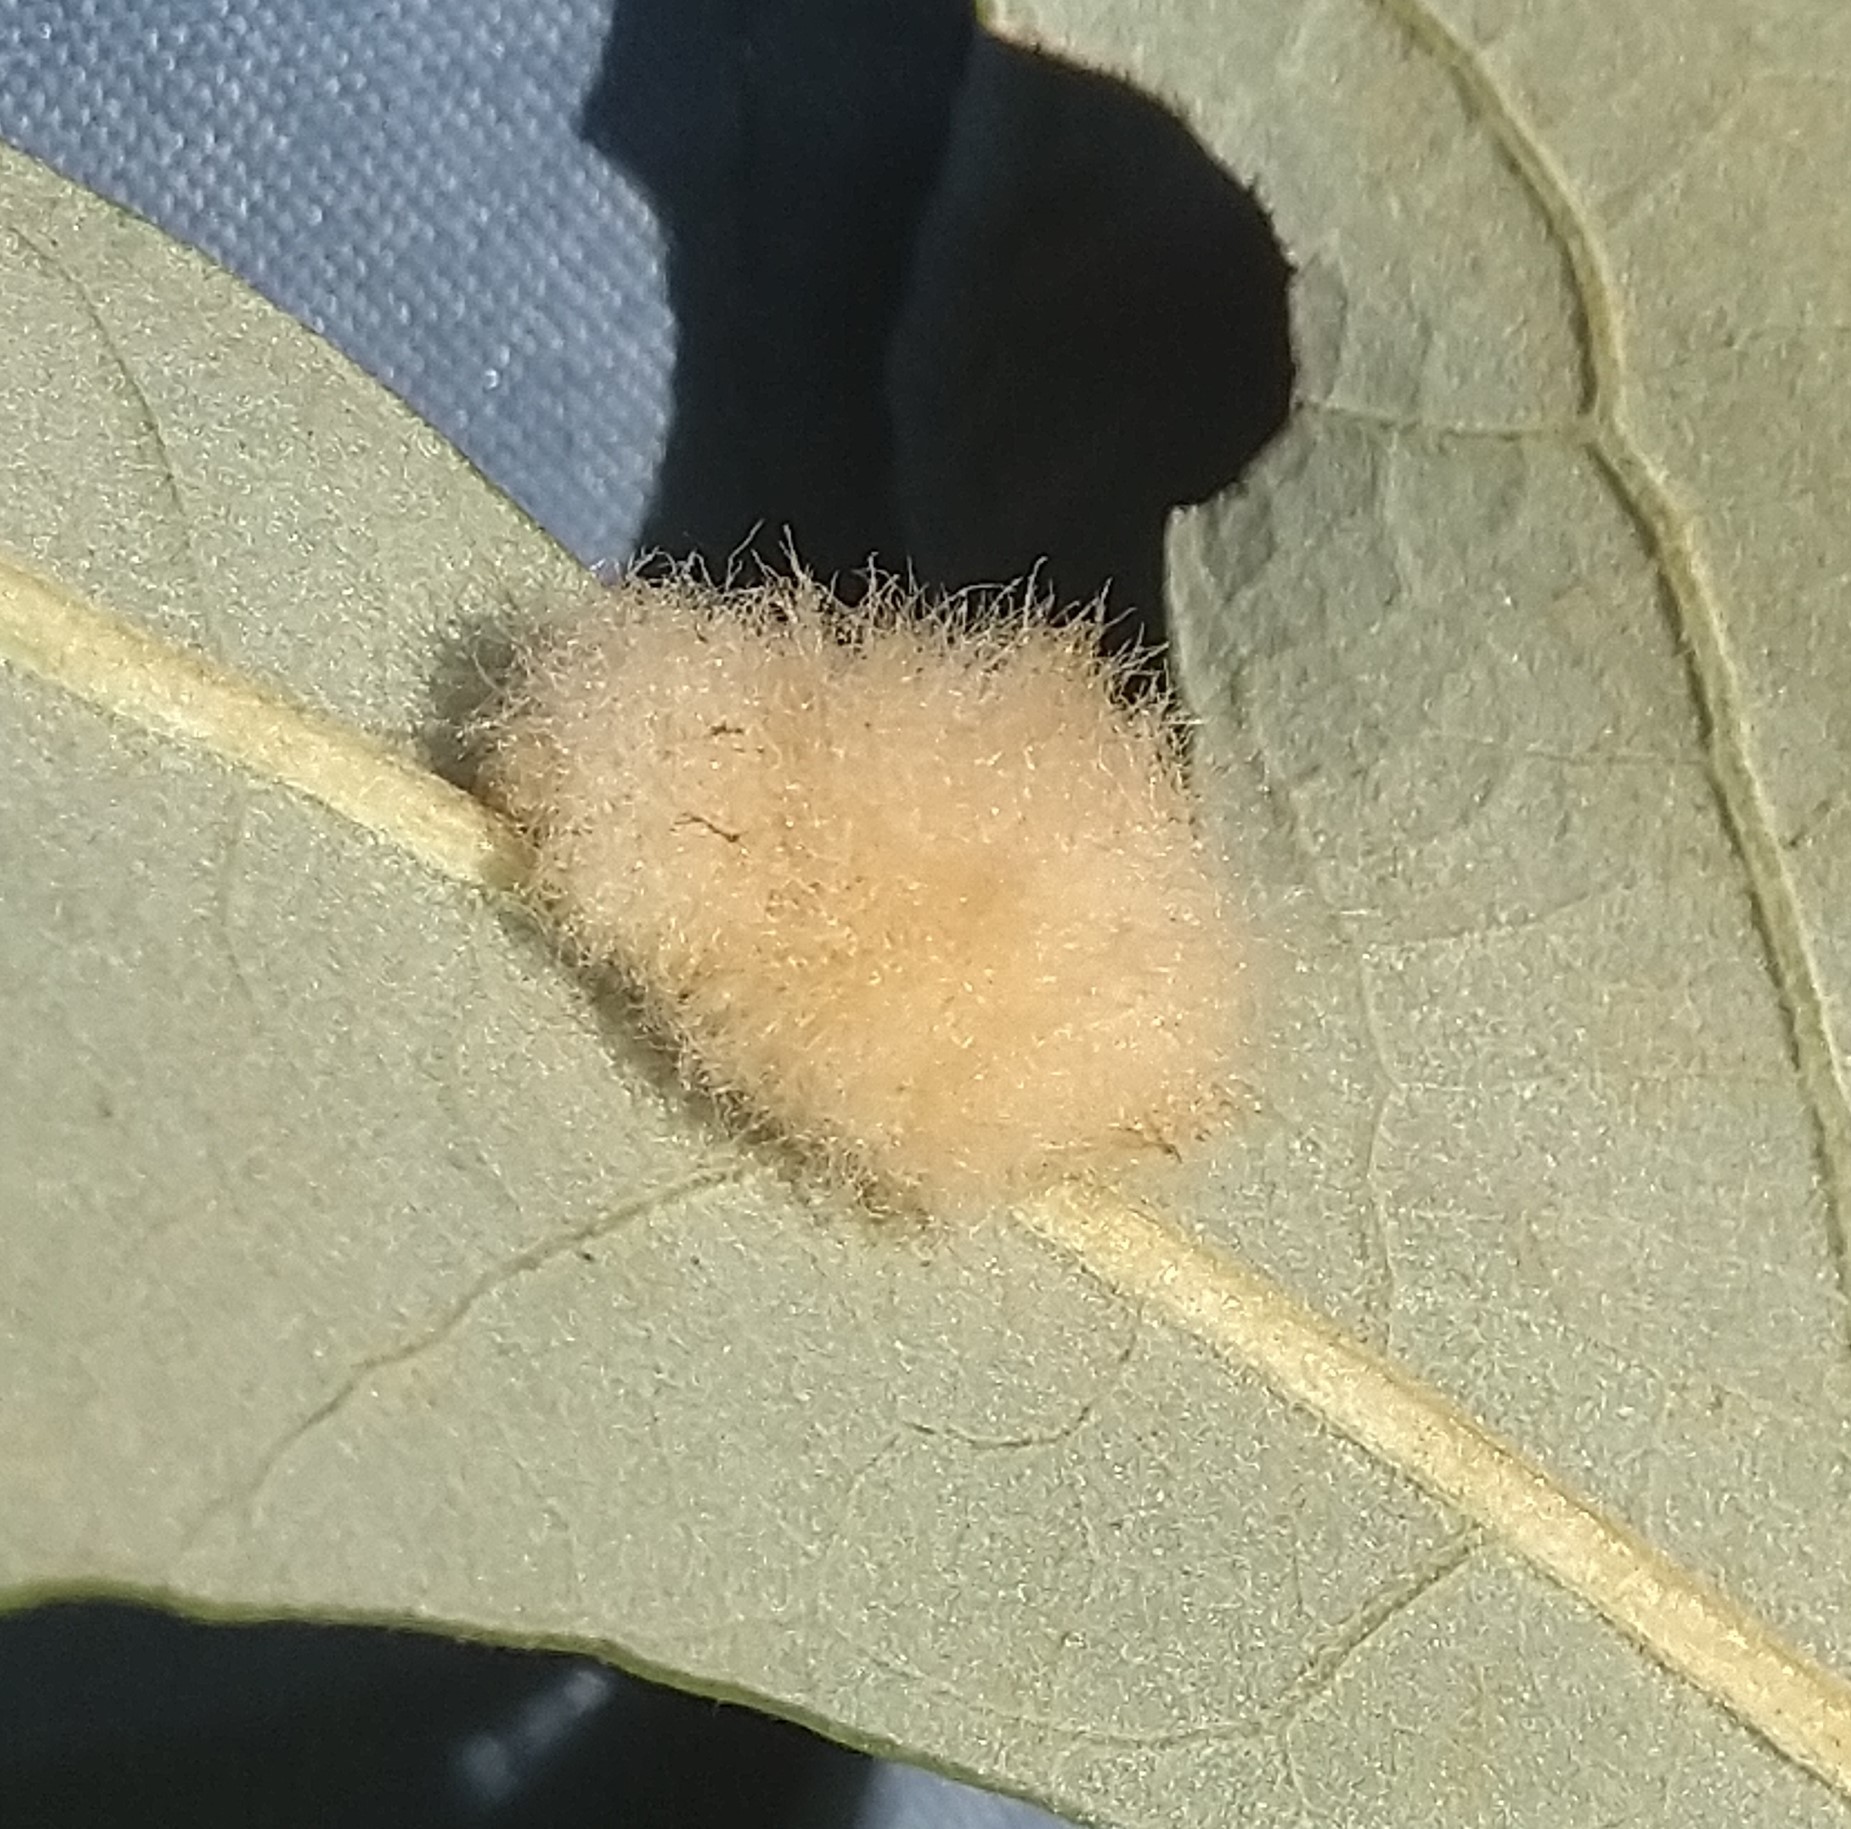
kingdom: Animalia
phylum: Arthropoda
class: Insecta
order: Hymenoptera
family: Cynipidae
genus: Andricus
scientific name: Andricus Druon ignotum
